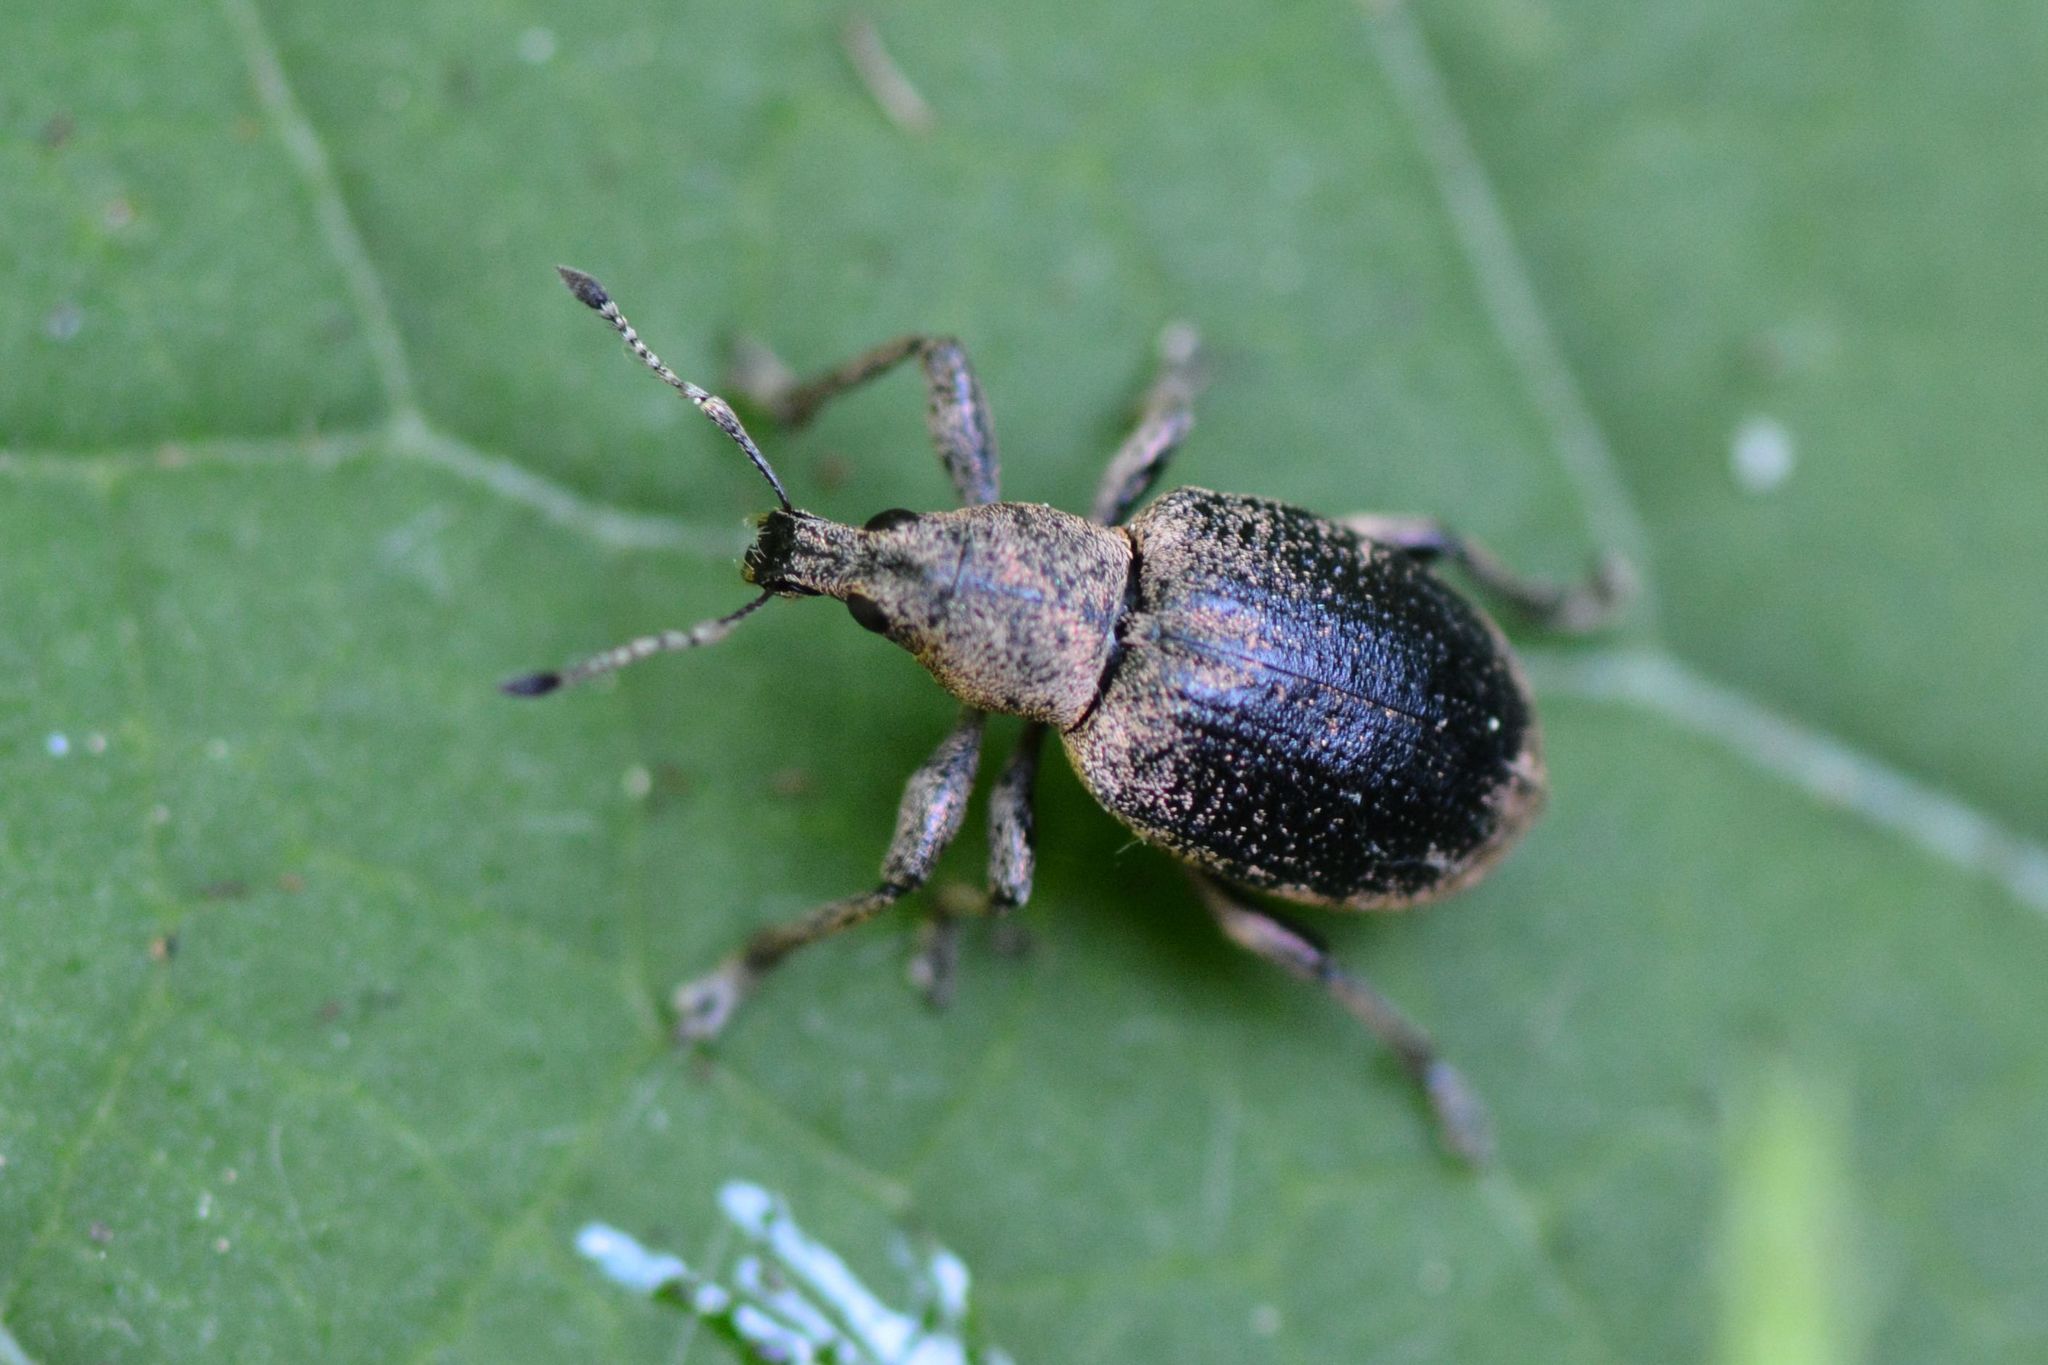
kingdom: Animalia
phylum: Arthropoda
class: Insecta
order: Coleoptera
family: Curculionidae
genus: Liophloeus
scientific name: Liophloeus tessulatus
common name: Weevil
